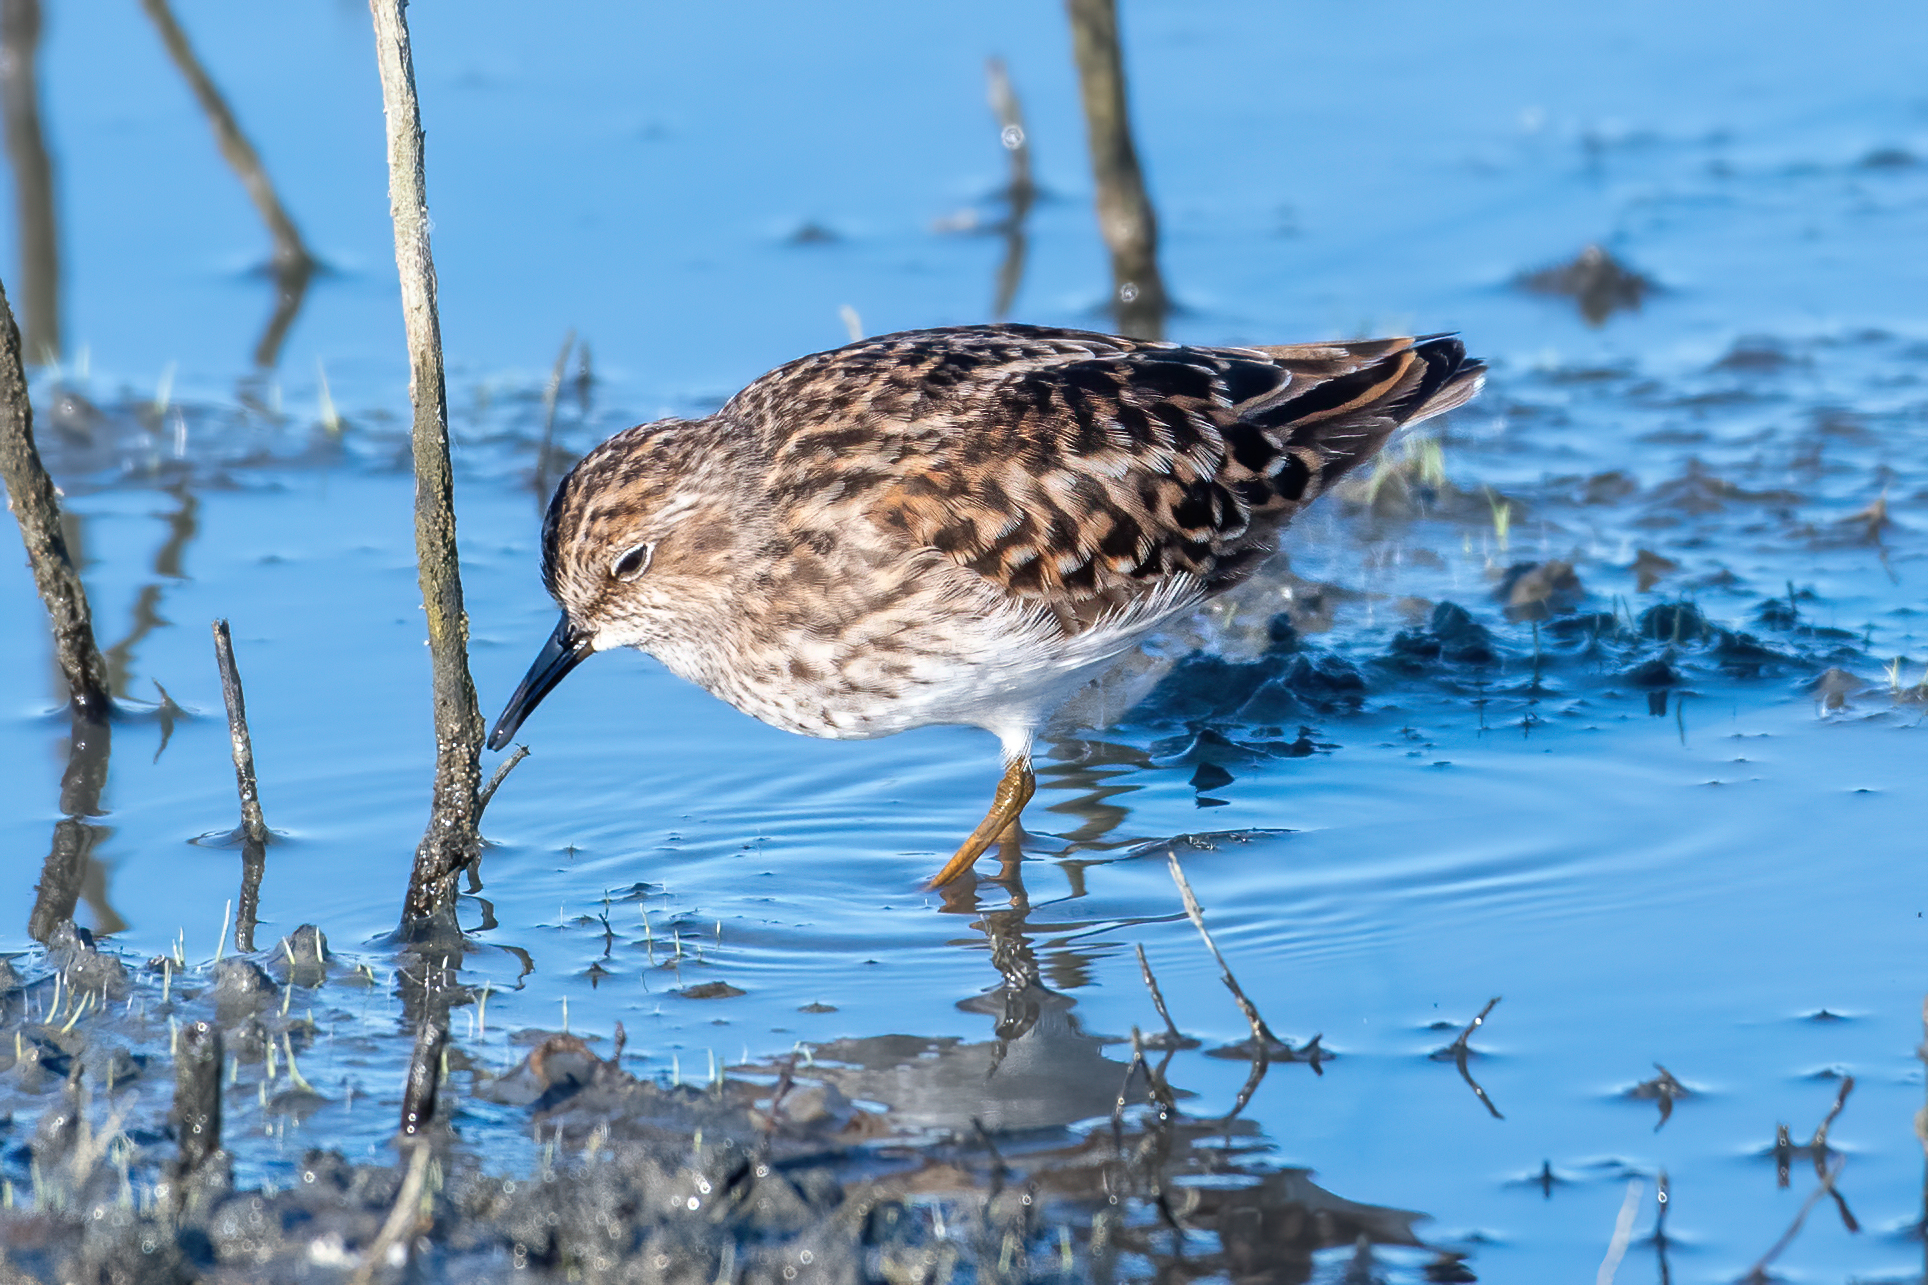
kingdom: Animalia
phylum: Chordata
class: Aves
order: Charadriiformes
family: Scolopacidae
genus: Calidris
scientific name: Calidris minutilla
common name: Least sandpiper
